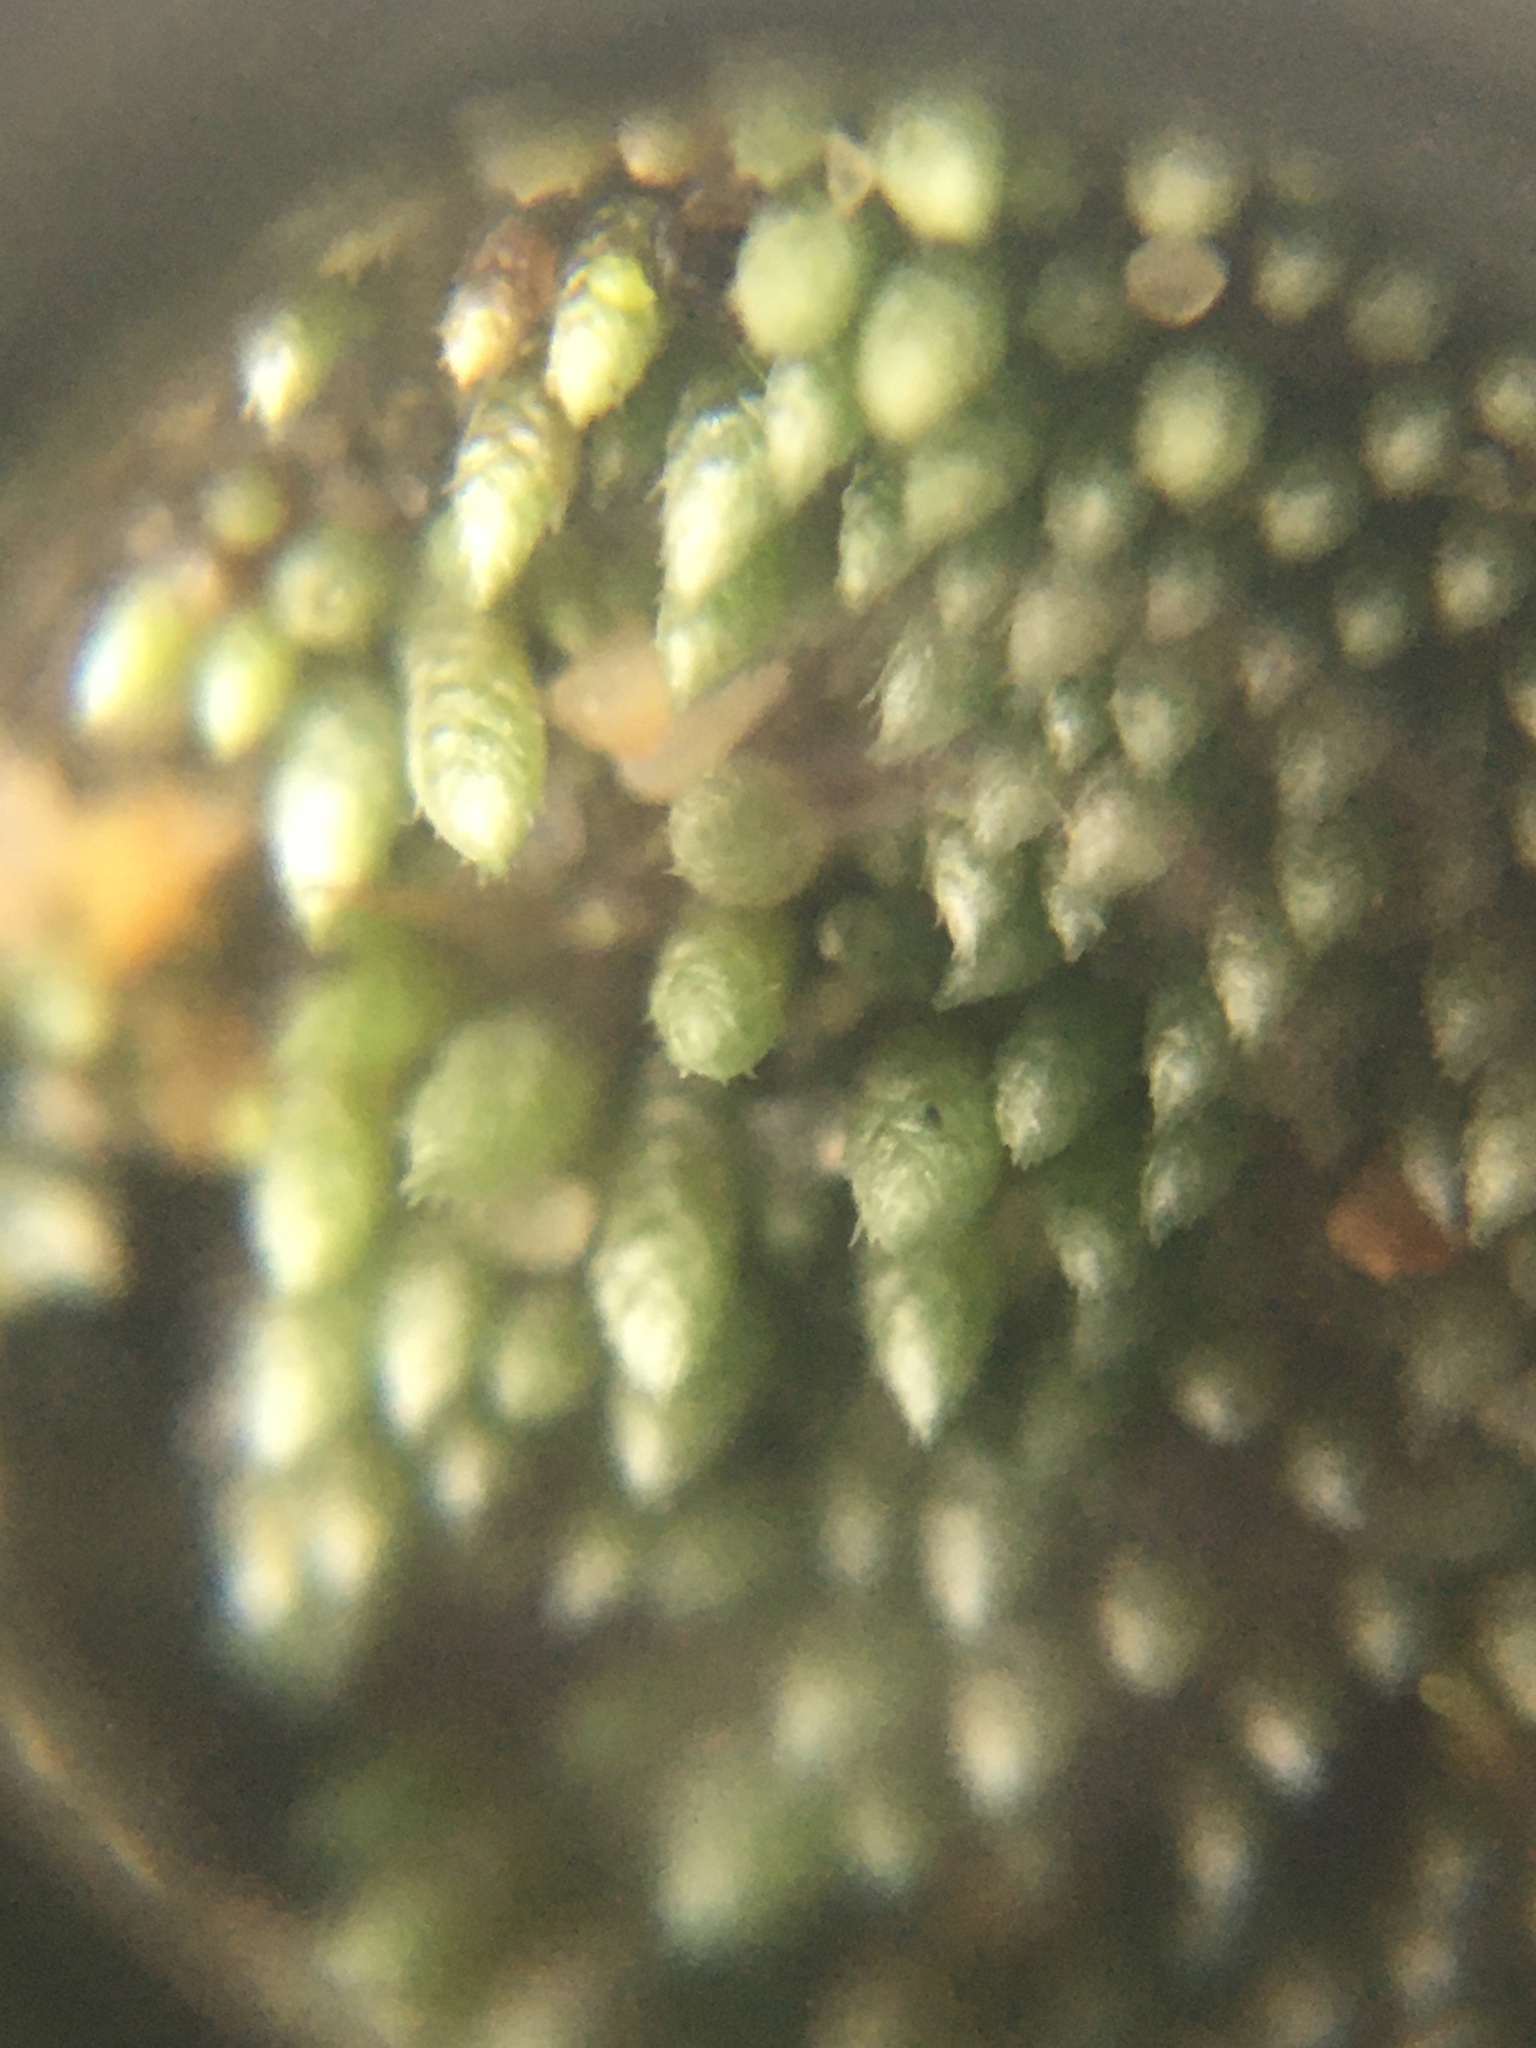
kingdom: Plantae
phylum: Bryophyta
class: Bryopsida
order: Bryales
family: Bryaceae
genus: Bryum
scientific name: Bryum argenteum
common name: Silver-moss
